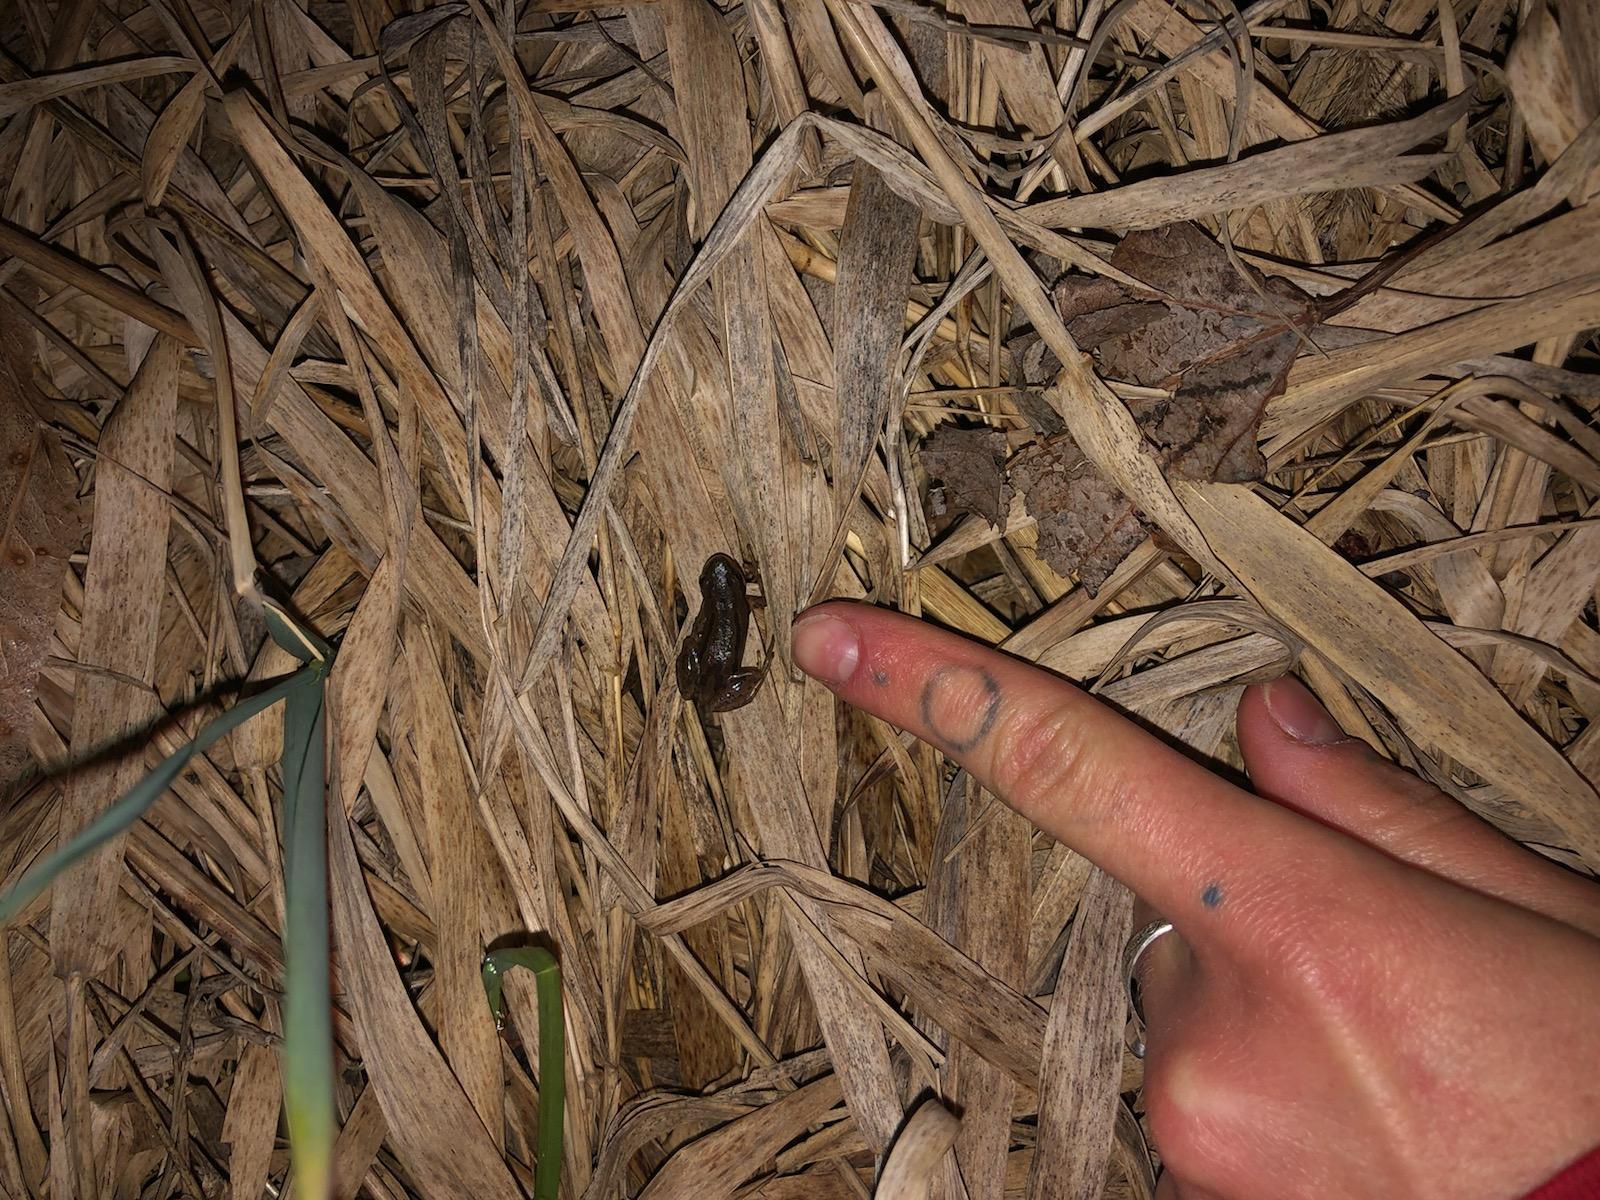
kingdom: Animalia
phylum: Chordata
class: Amphibia
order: Anura
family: Hylidae
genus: Pseudacris
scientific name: Pseudacris maculata
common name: Boreal chorus frog
